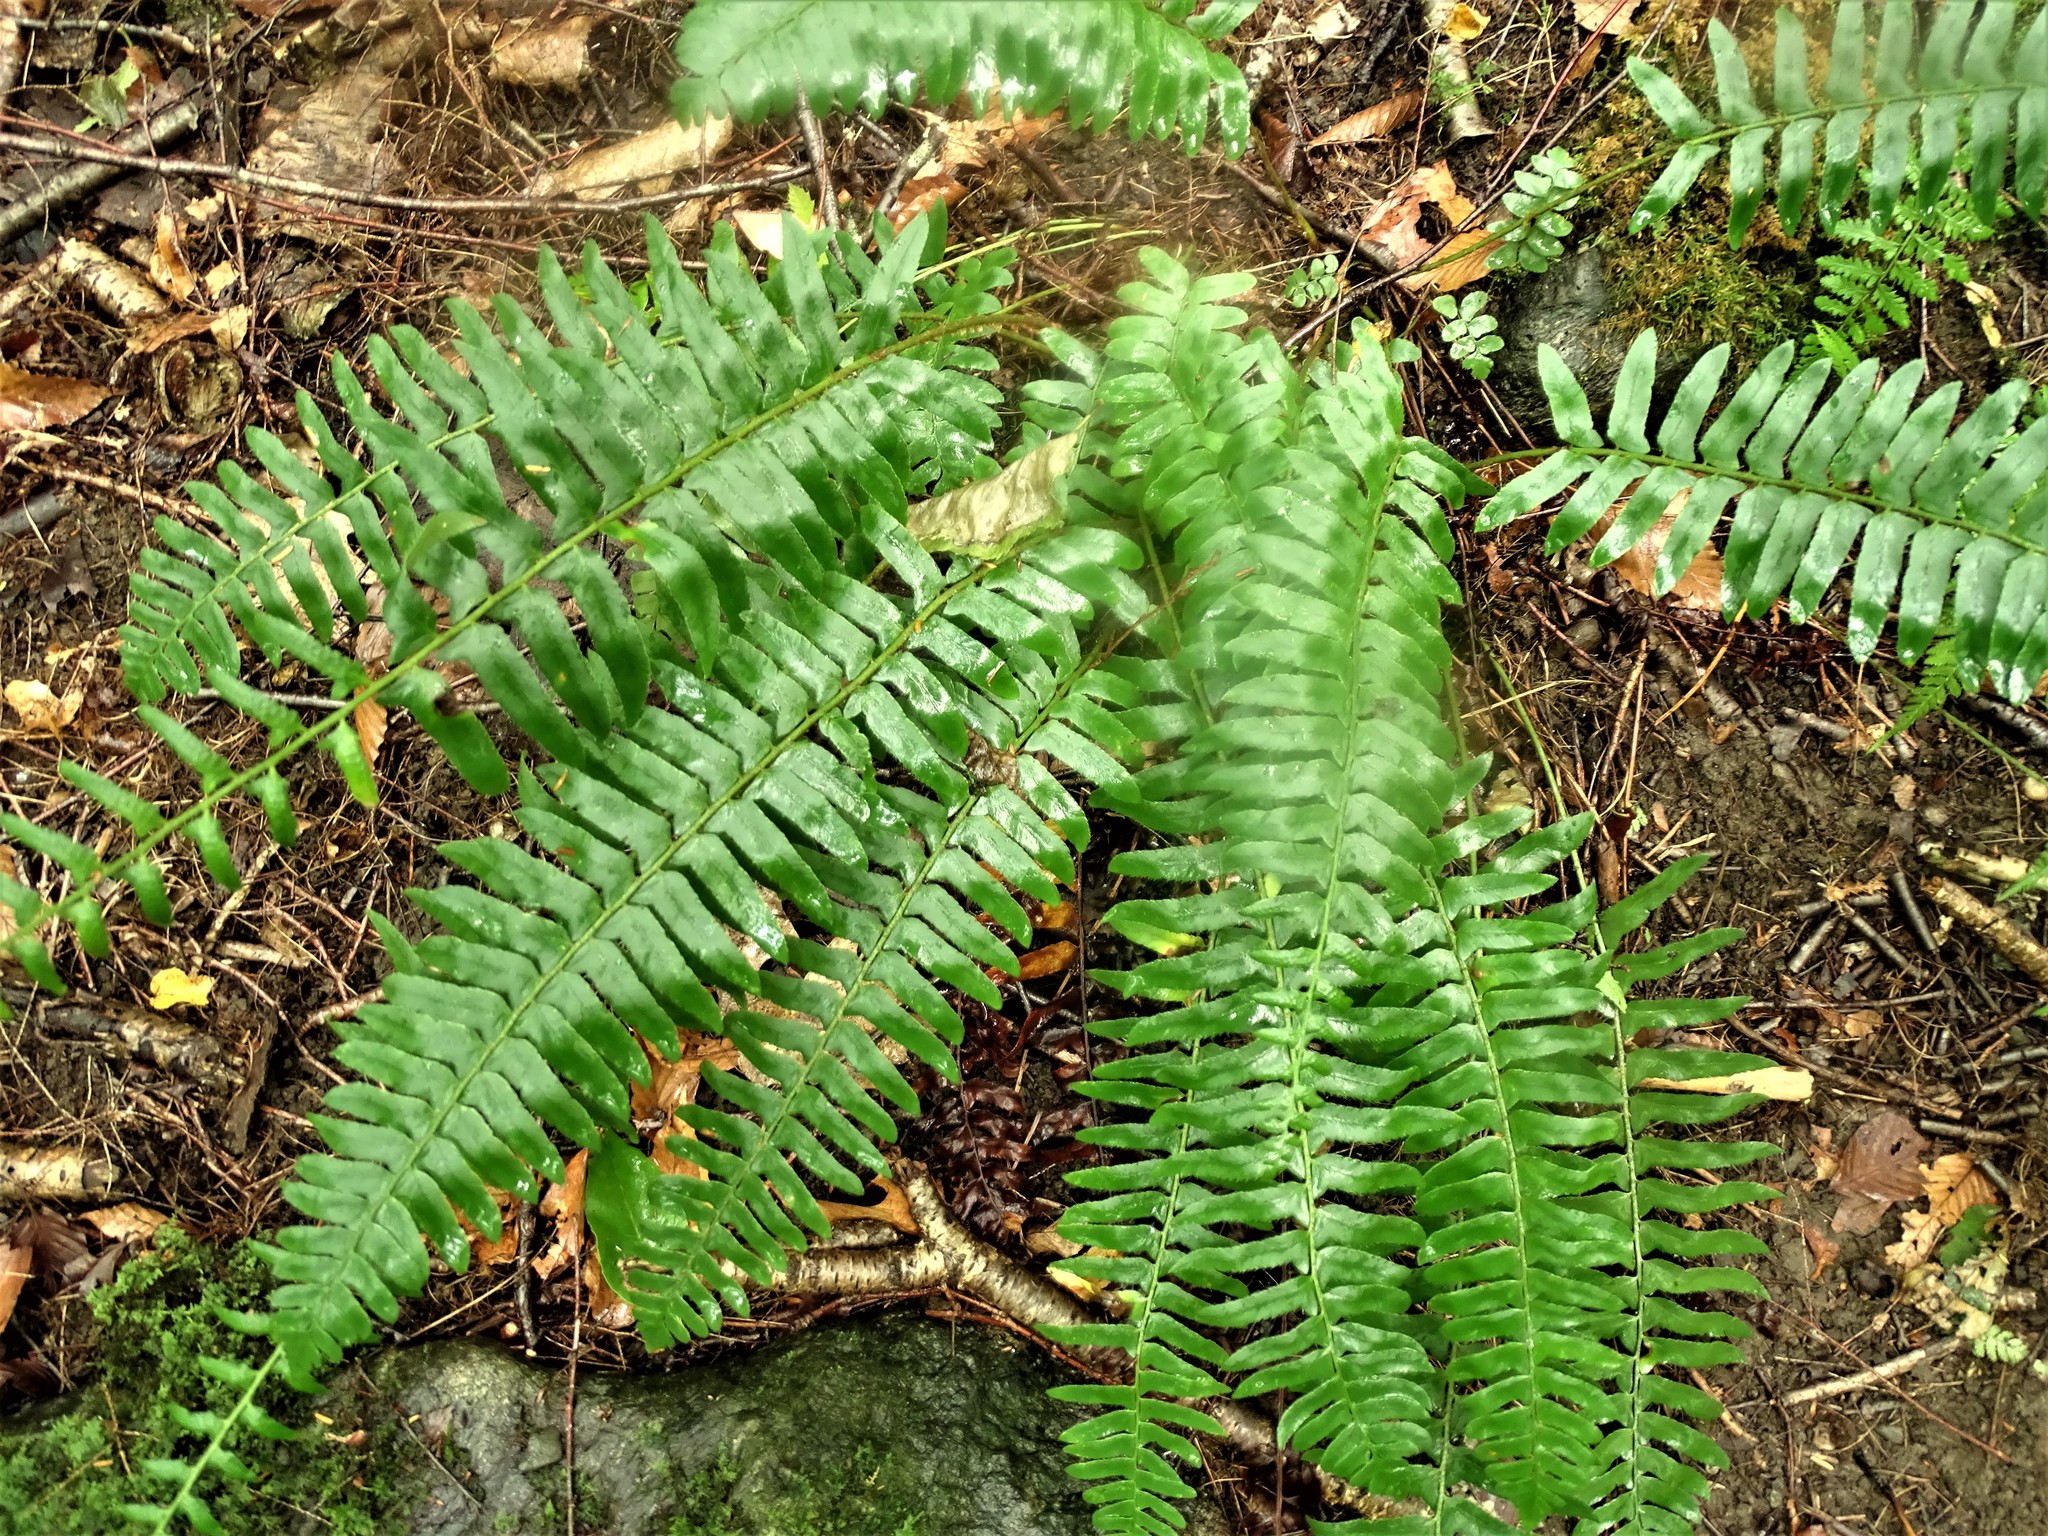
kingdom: Plantae
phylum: Tracheophyta
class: Polypodiopsida
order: Polypodiales
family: Dryopteridaceae
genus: Polystichum
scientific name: Polystichum acrostichoides
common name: Christmas fern
